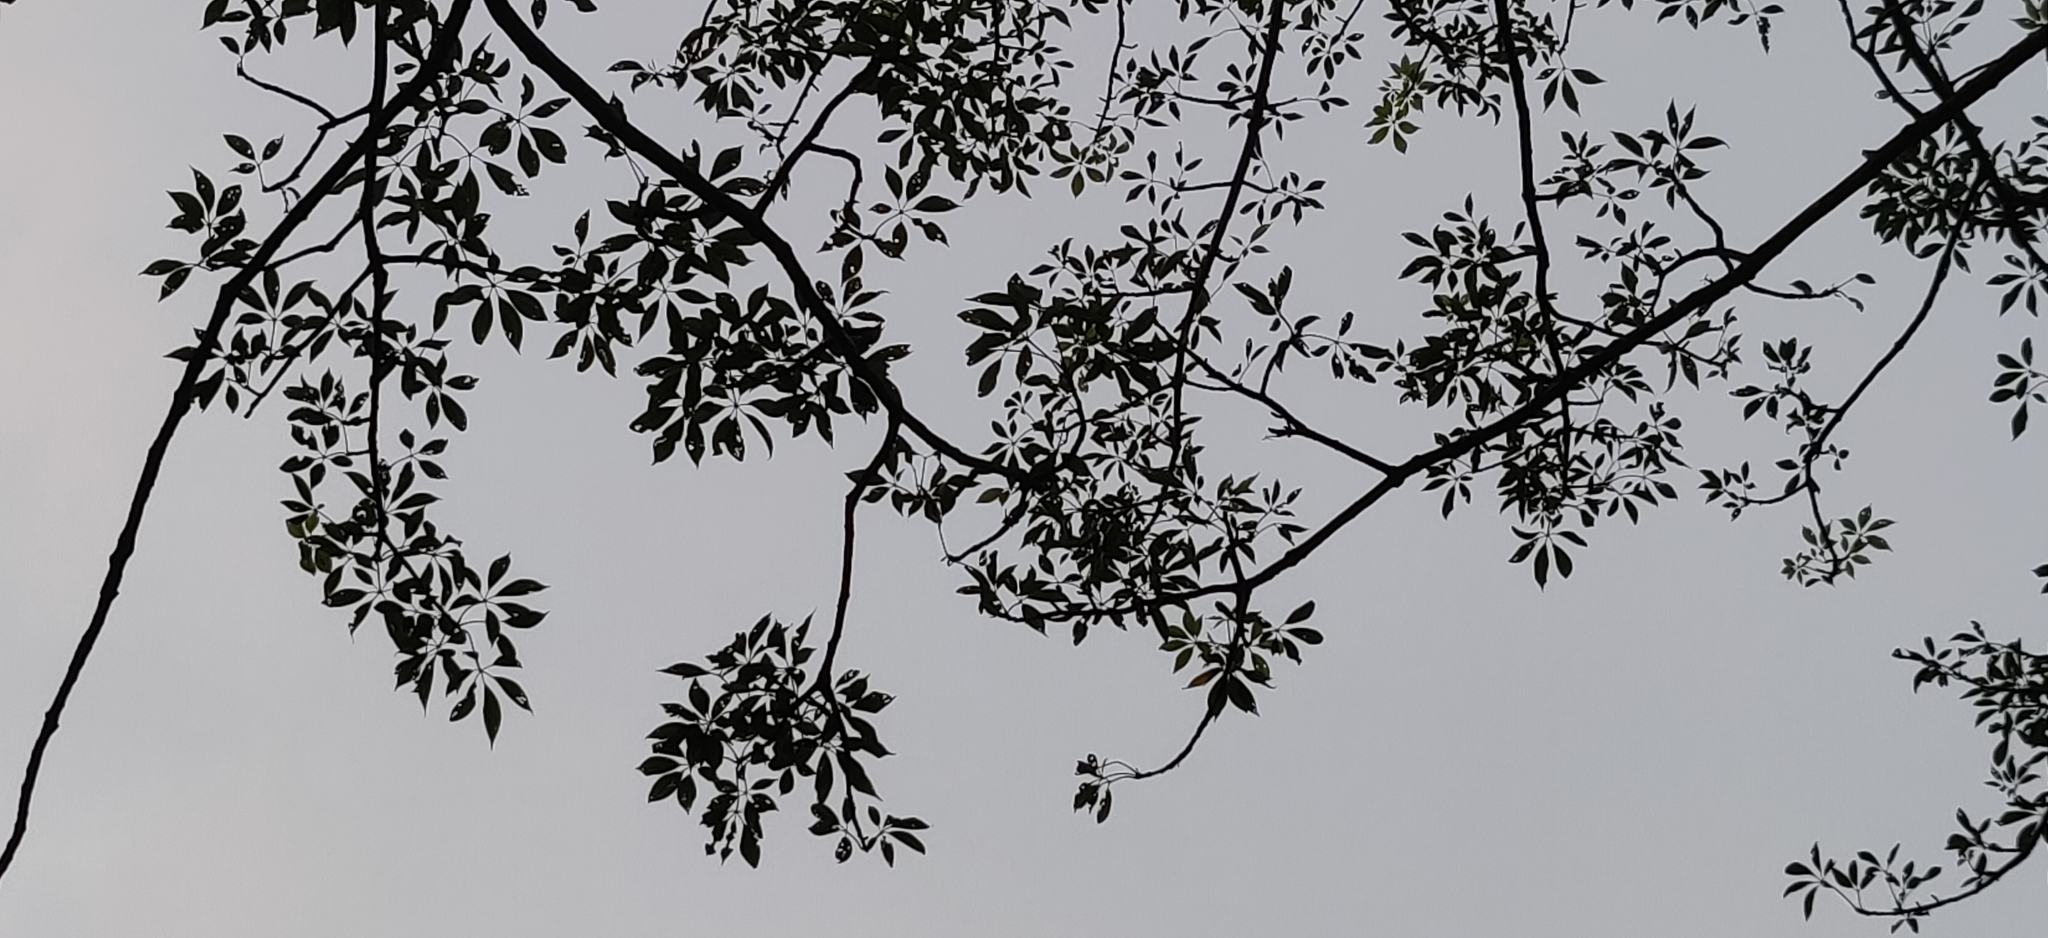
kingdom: Plantae
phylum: Tracheophyta
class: Magnoliopsida
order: Malvales
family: Malvaceae
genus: Bombax
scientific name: Bombax ceiba
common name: Northern-cottonwood
